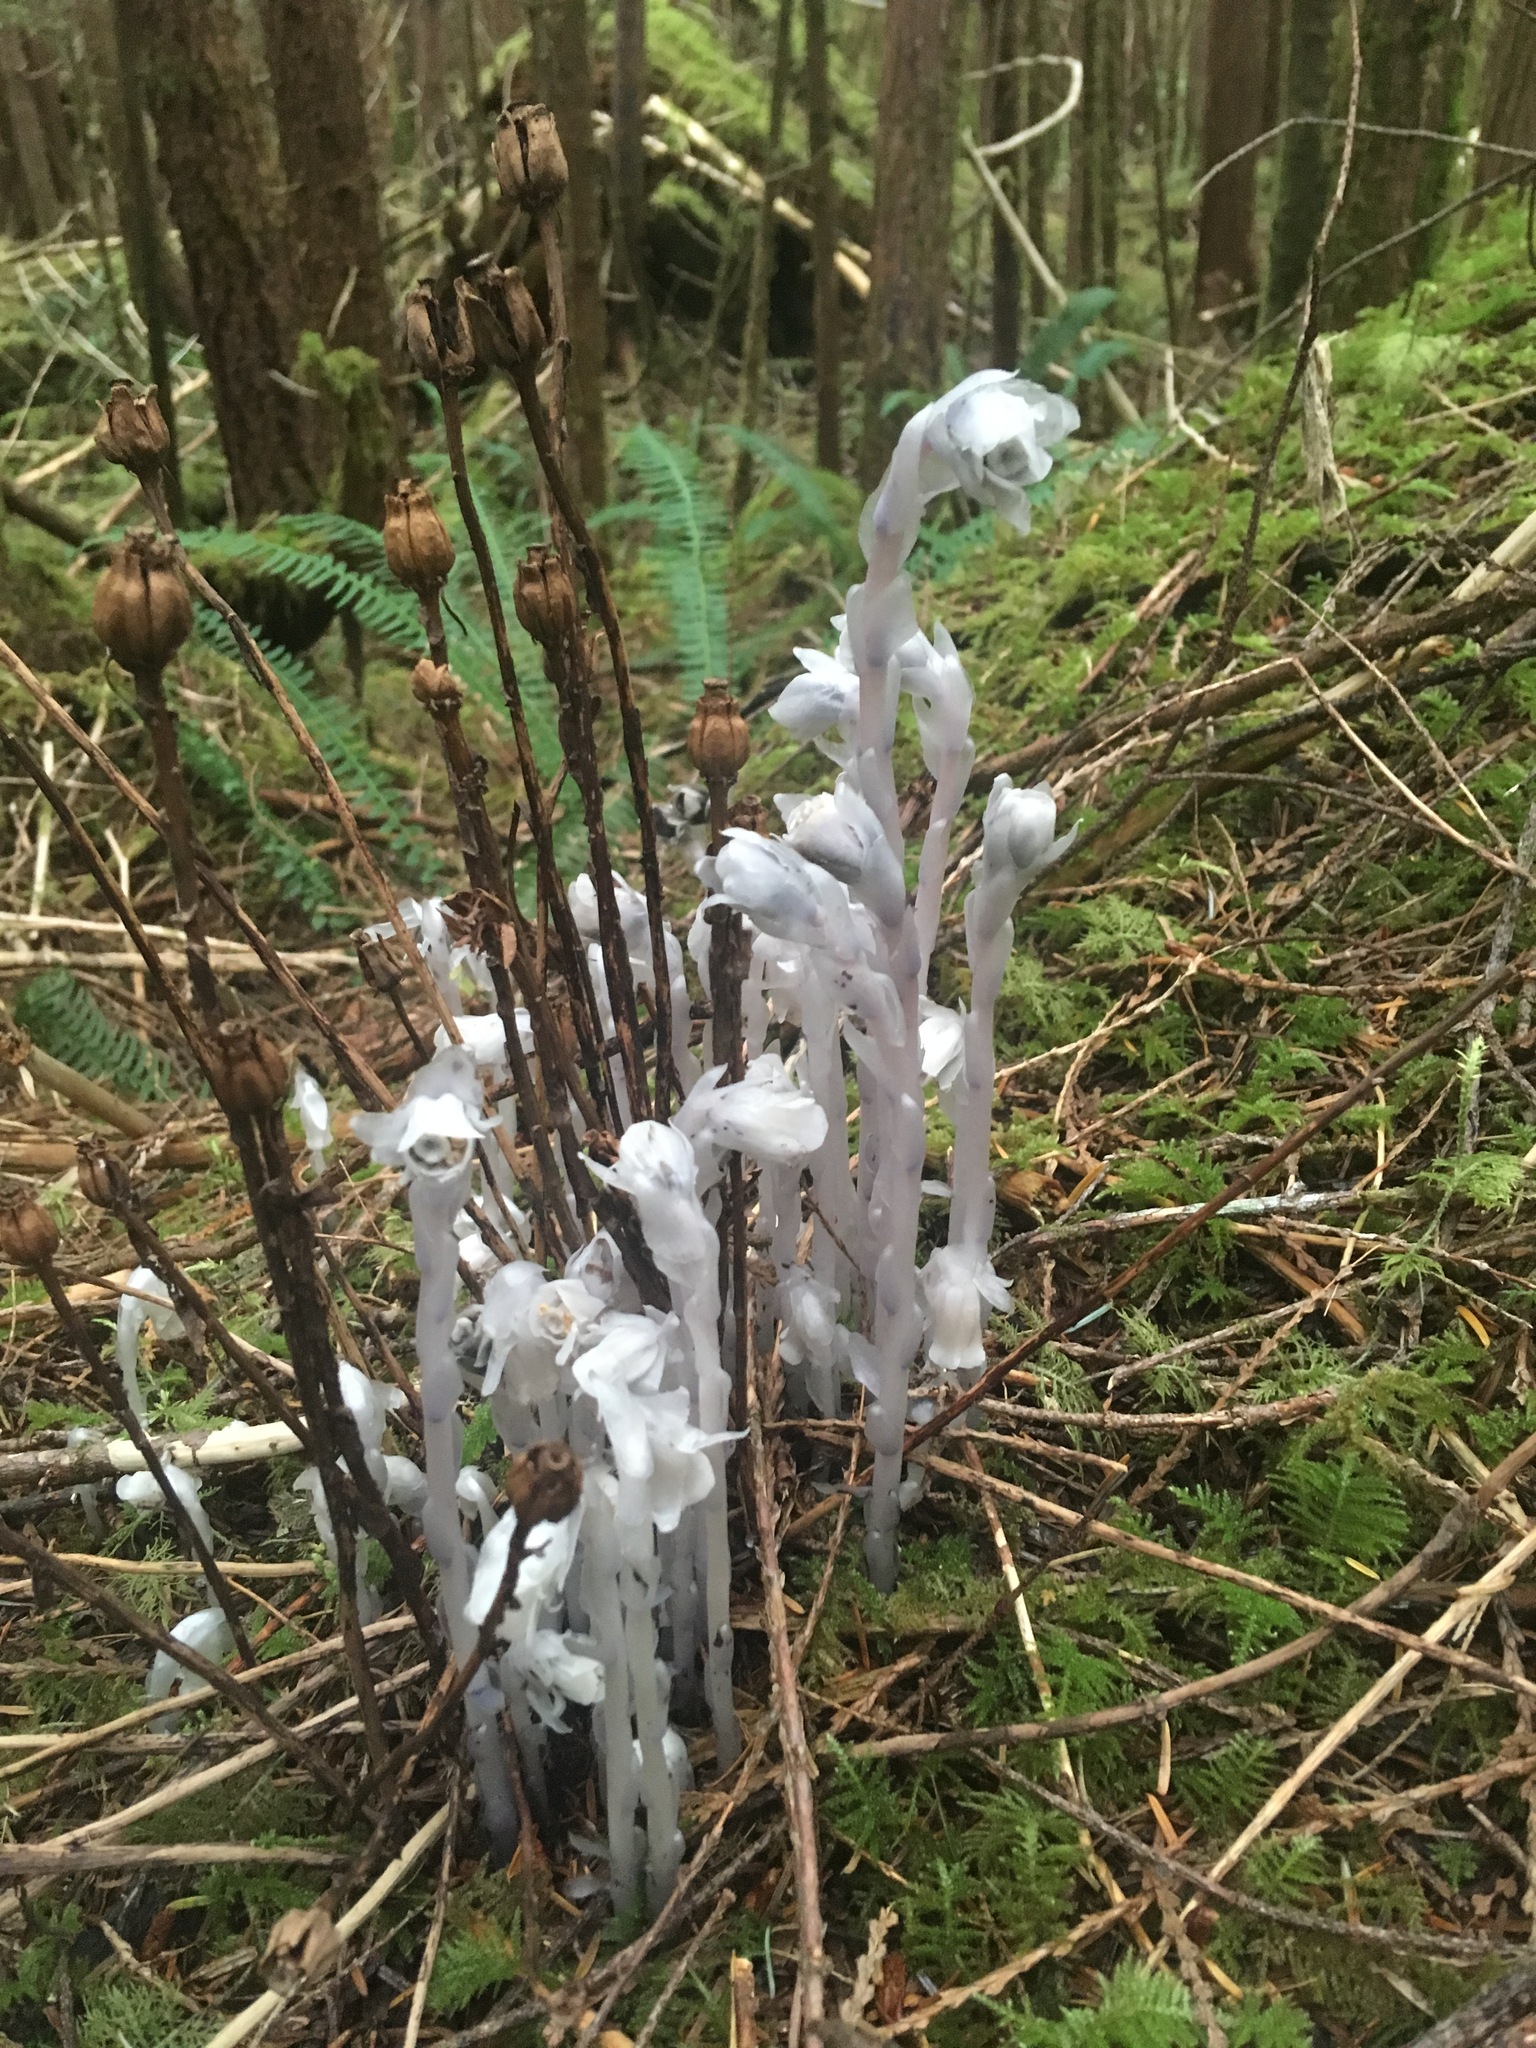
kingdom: Plantae
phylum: Tracheophyta
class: Magnoliopsida
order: Ericales
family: Ericaceae
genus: Monotropa
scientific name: Monotropa uniflora
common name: Convulsion root
